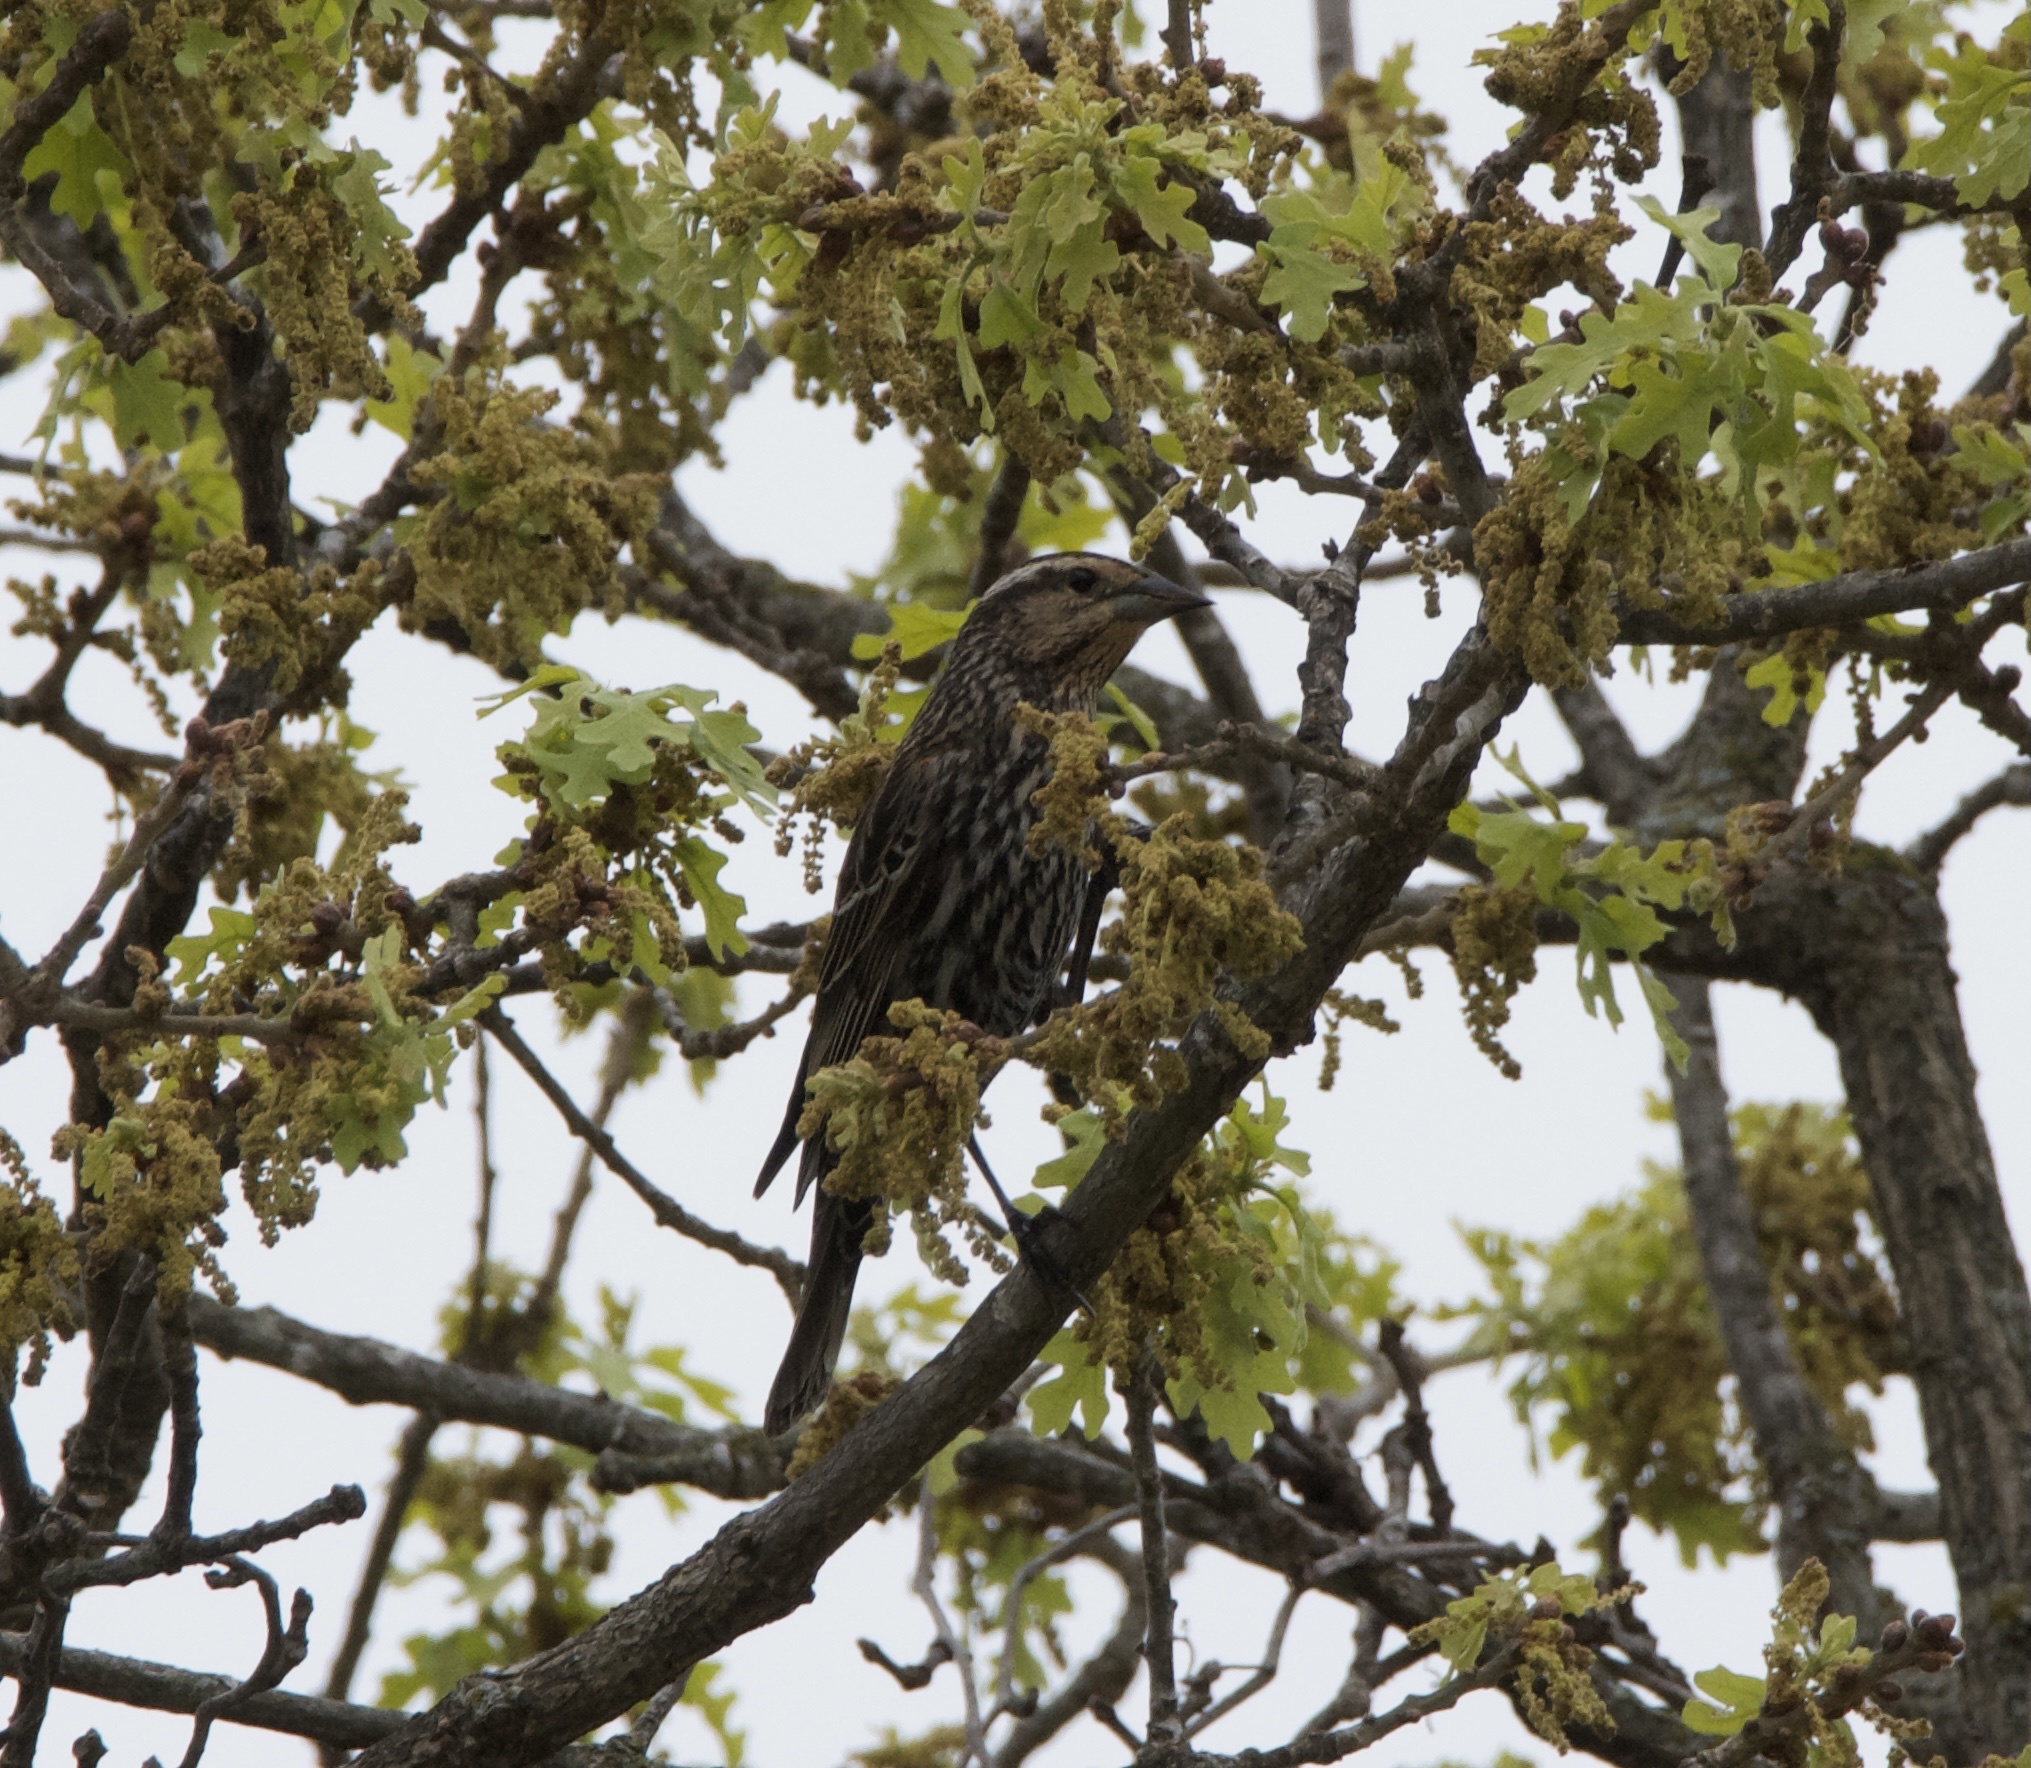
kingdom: Animalia
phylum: Chordata
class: Aves
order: Passeriformes
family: Icteridae
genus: Agelaius
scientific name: Agelaius phoeniceus
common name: Red-winged blackbird
